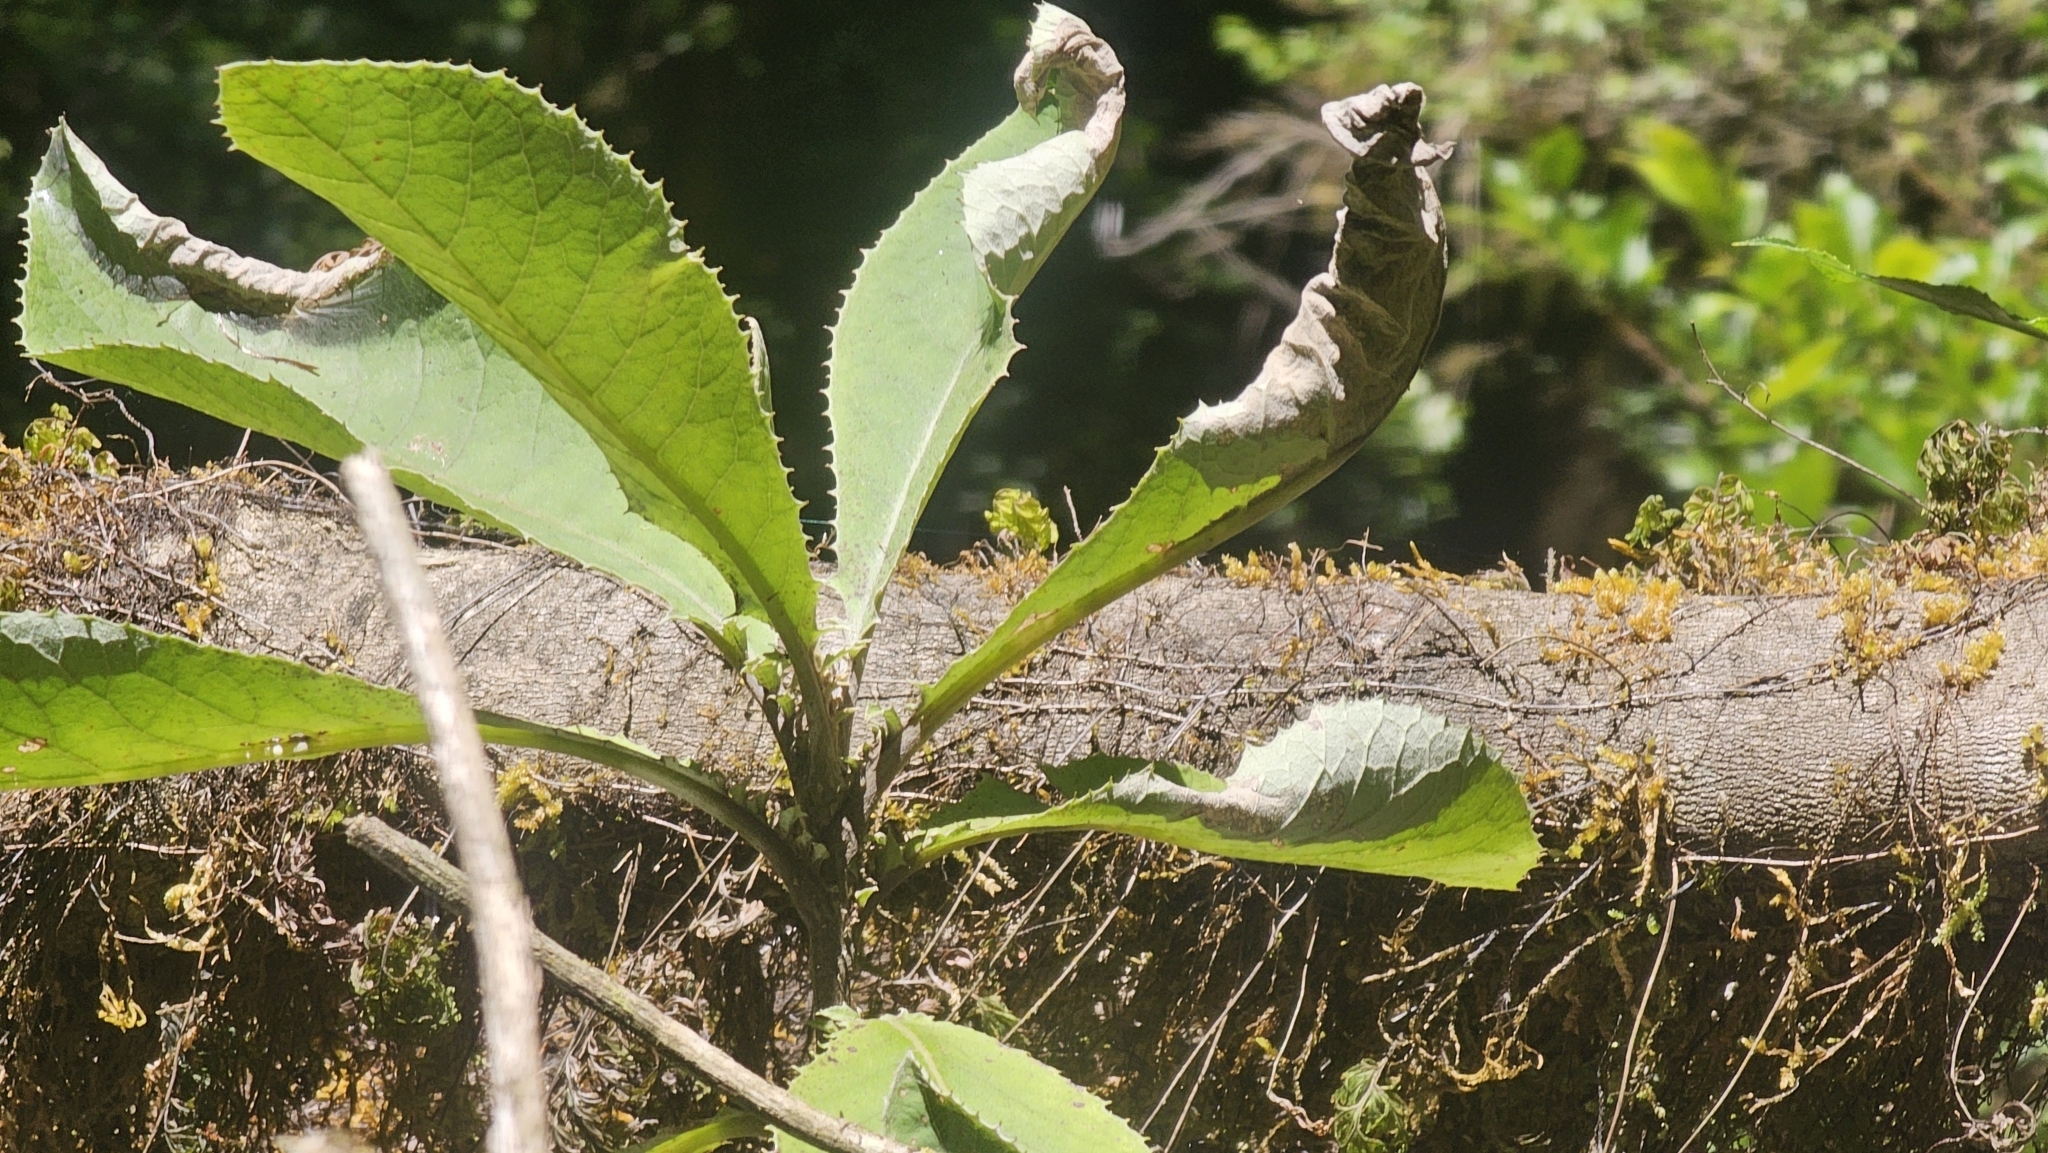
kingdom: Plantae
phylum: Tracheophyta
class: Magnoliopsida
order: Asterales
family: Asteraceae
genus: Brachyglottis
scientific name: Brachyglottis hectorii
